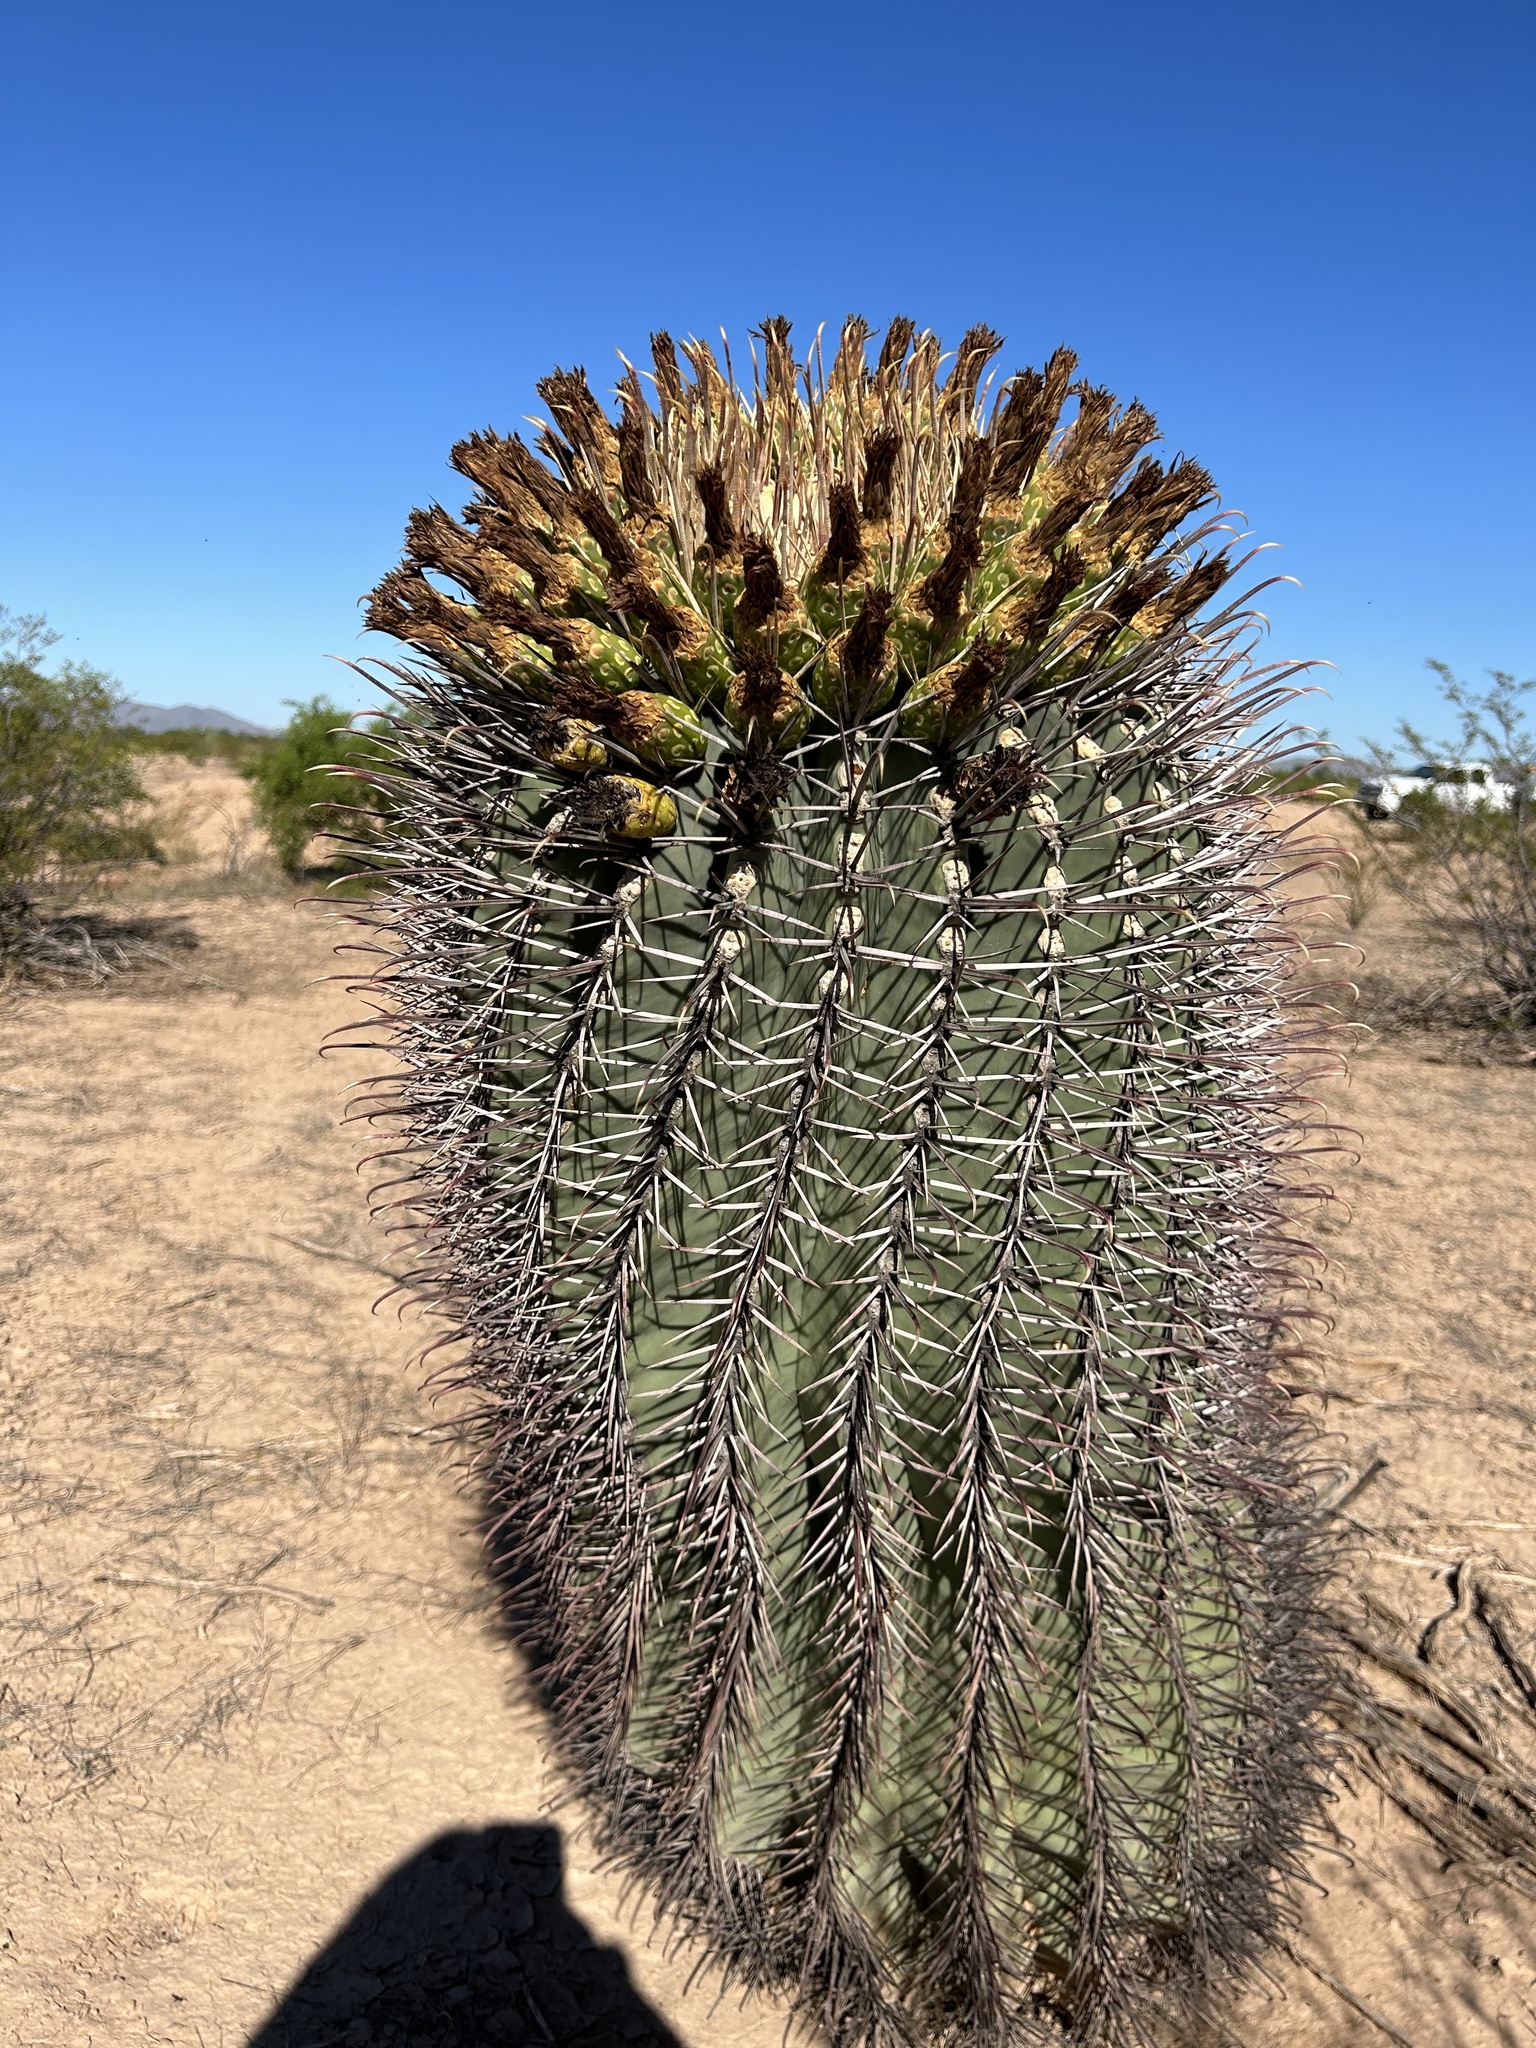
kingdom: Plantae
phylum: Tracheophyta
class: Magnoliopsida
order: Caryophyllales
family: Cactaceae
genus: Ferocactus
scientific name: Ferocactus emoryi
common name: Emory's barrel cactus
